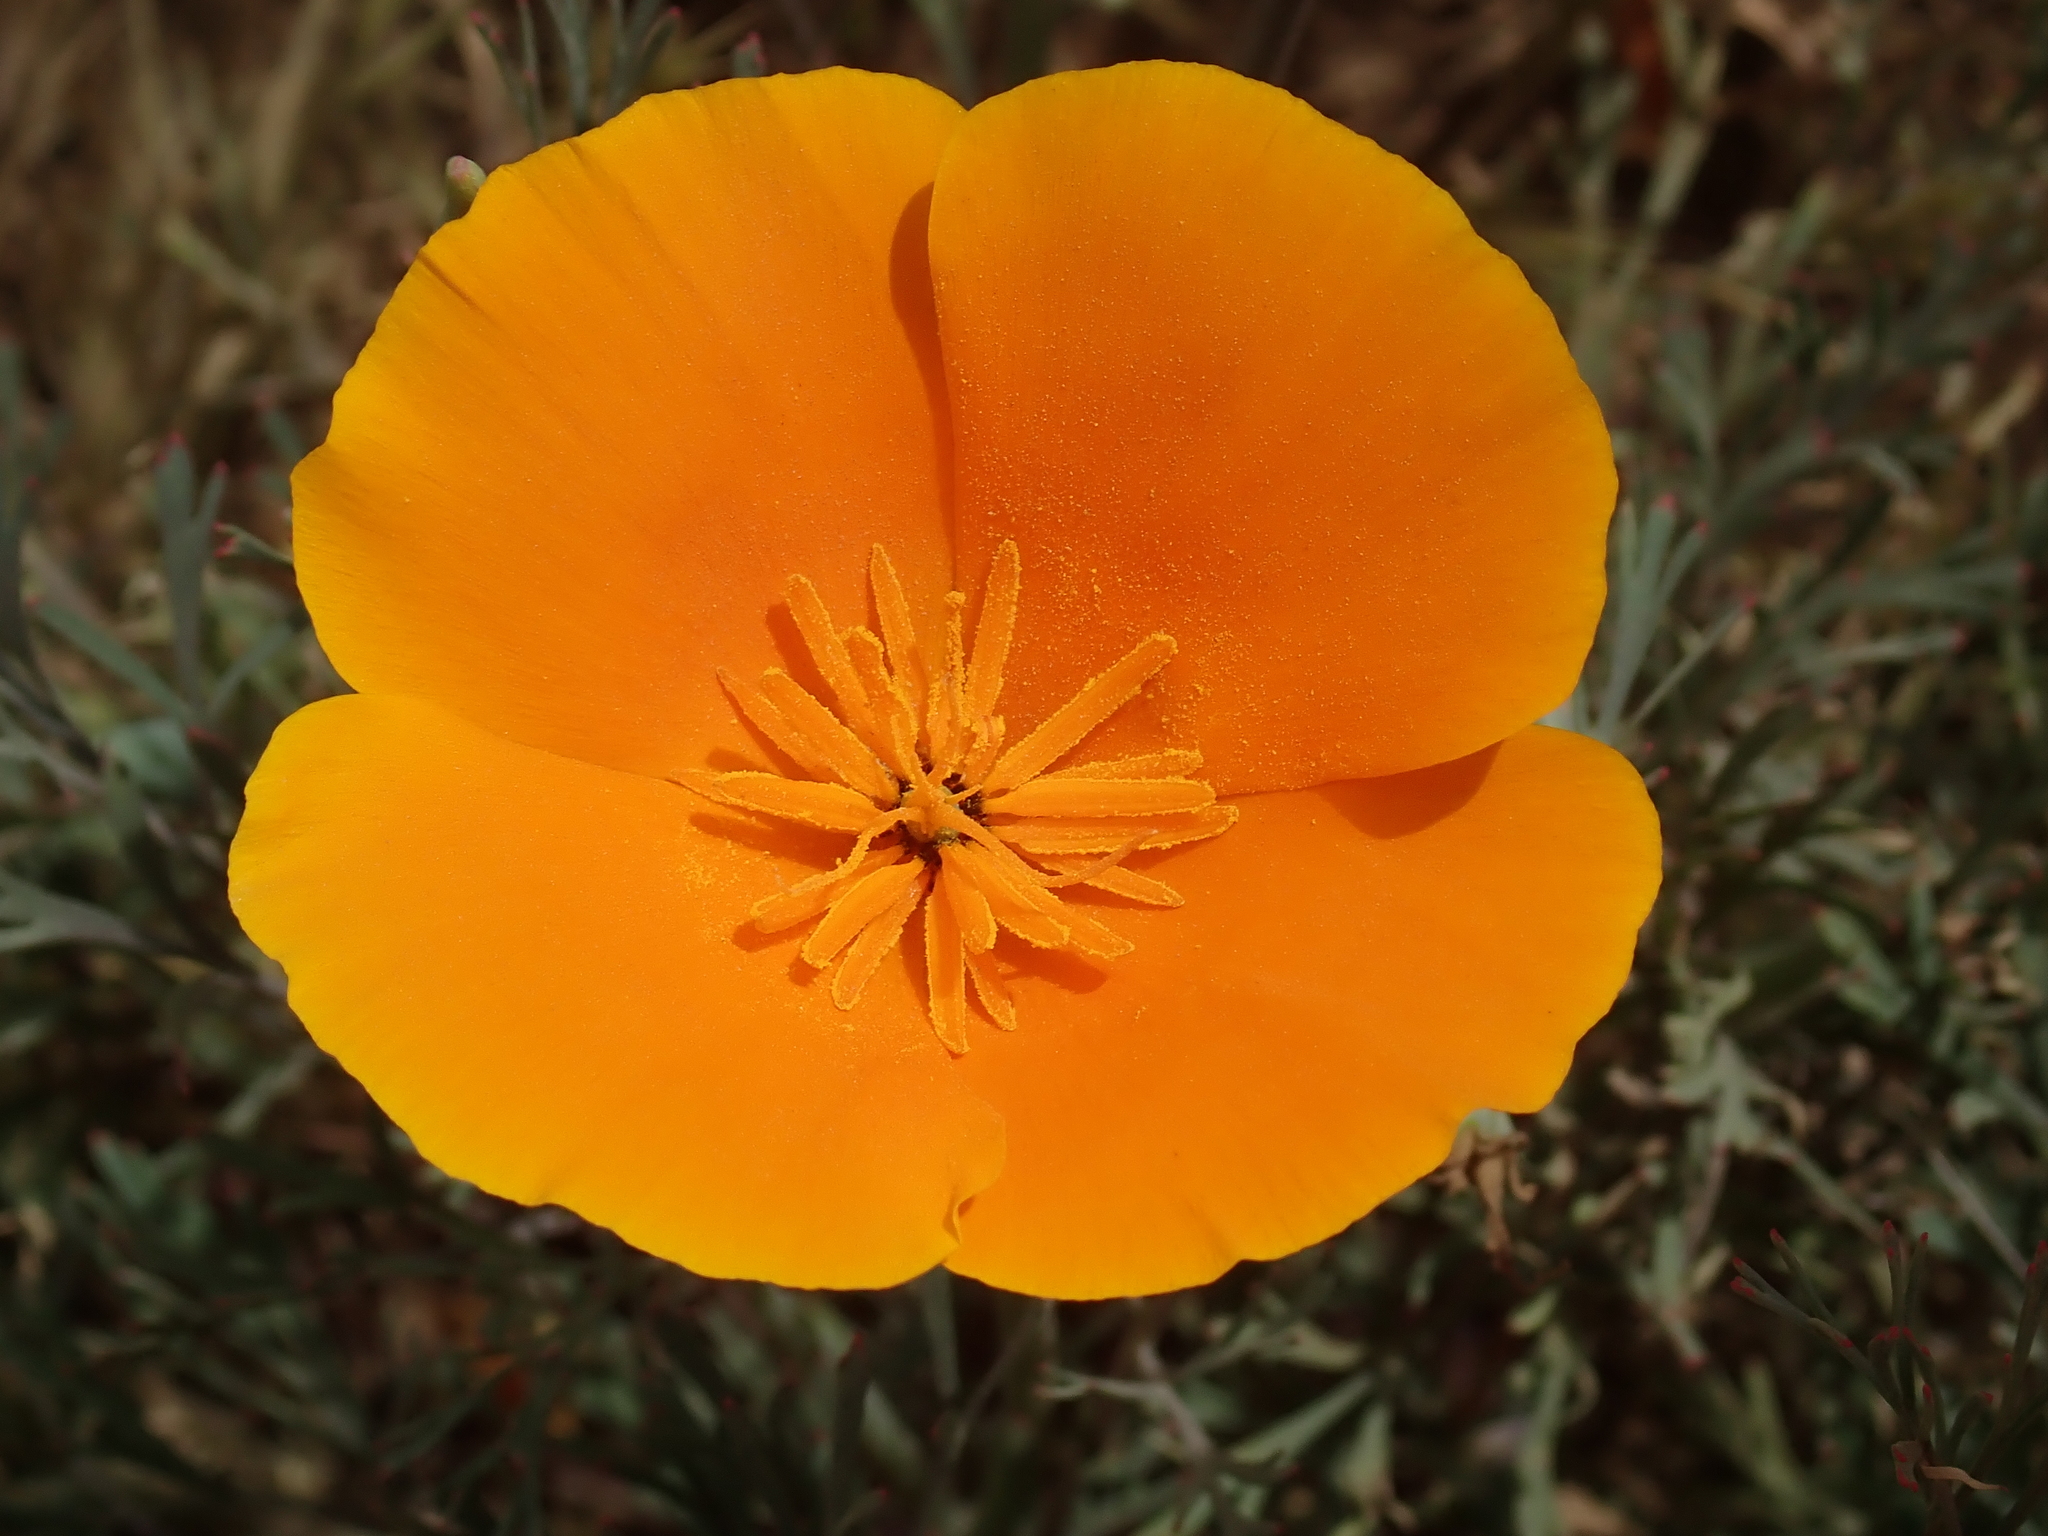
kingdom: Plantae
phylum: Tracheophyta
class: Magnoliopsida
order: Ranunculales
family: Papaveraceae
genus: Eschscholzia
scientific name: Eschscholzia californica
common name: California poppy
